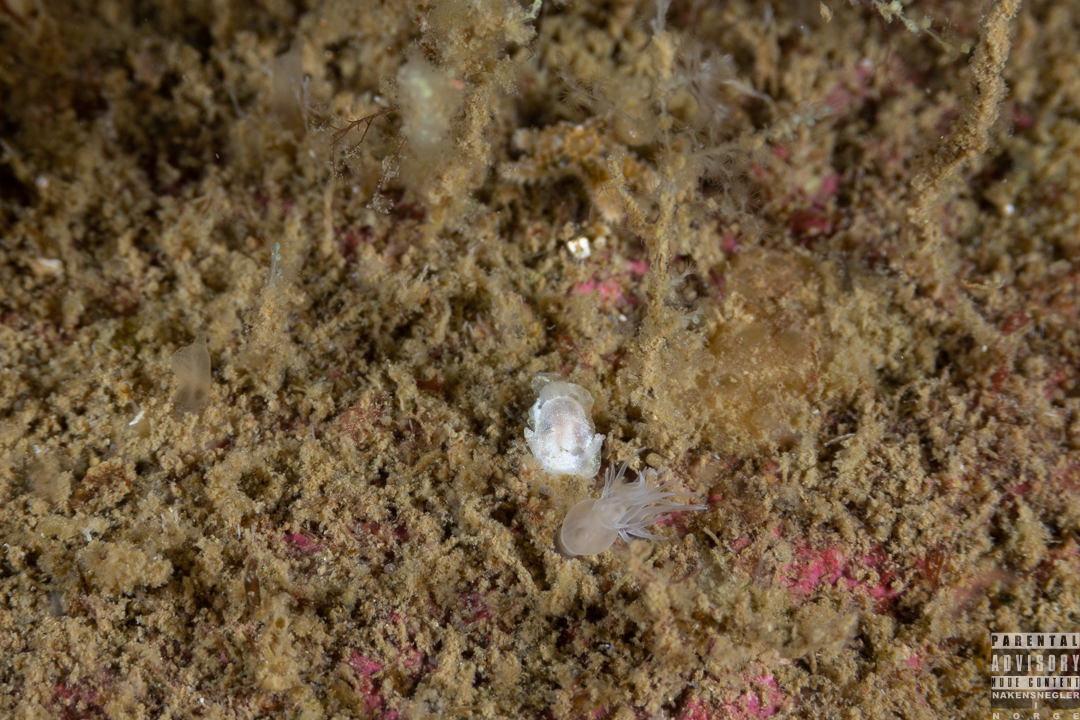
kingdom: Animalia
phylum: Mollusca
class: Gastropoda
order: Nudibranchia
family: Goniodorididae
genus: Okenia
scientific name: Okenia
